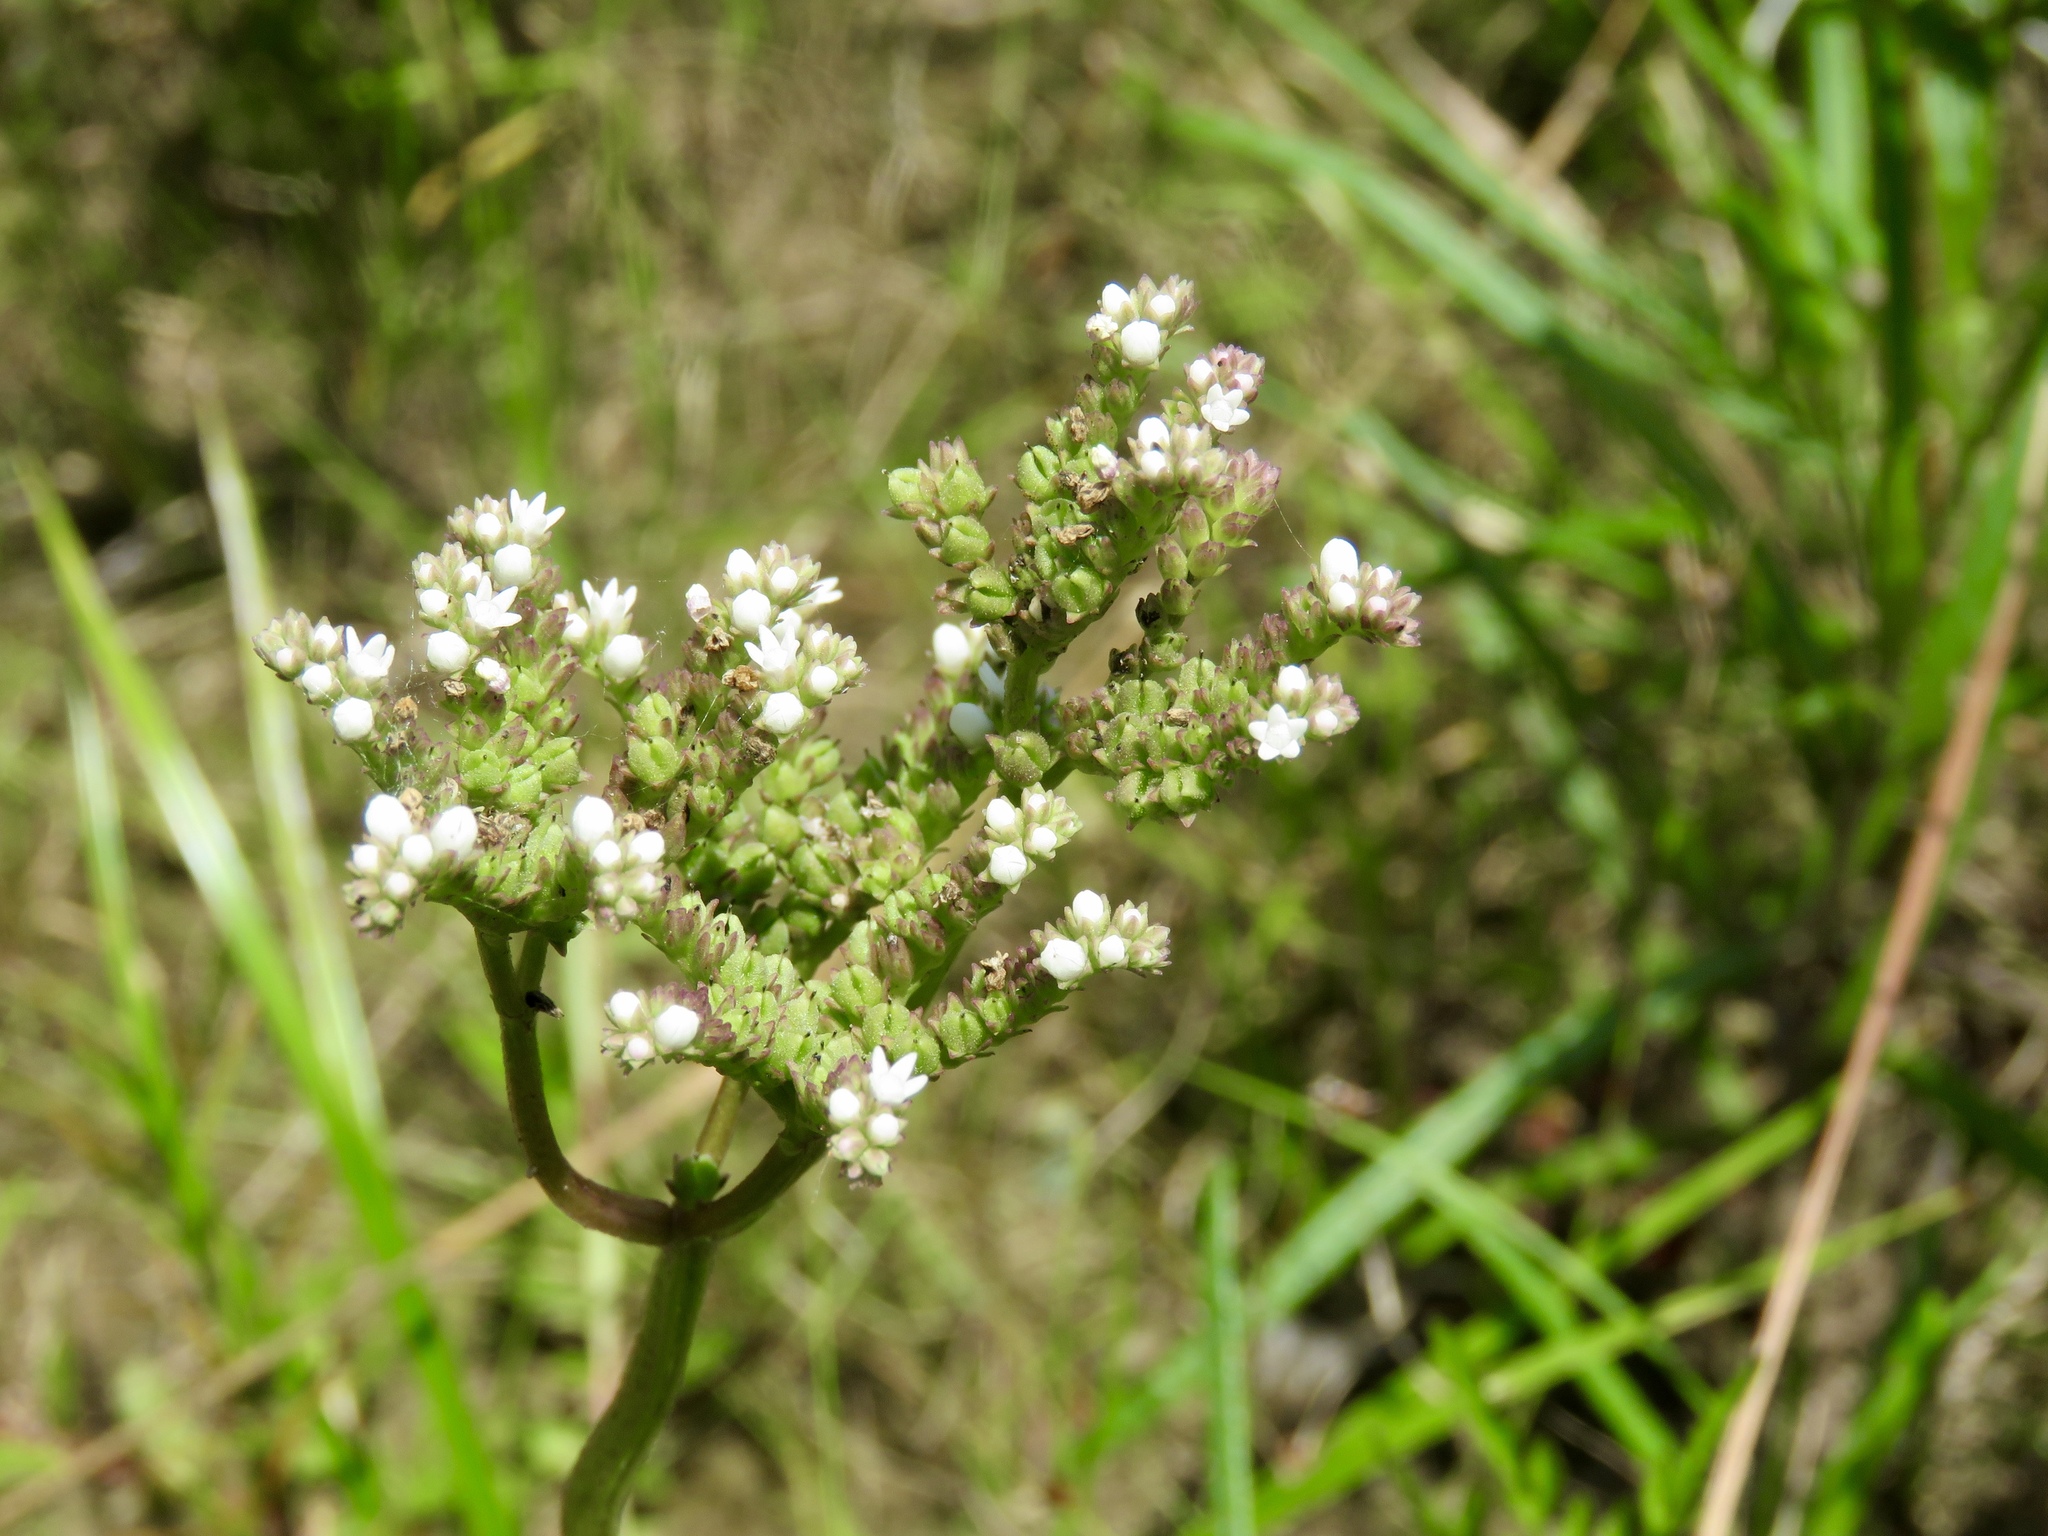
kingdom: Plantae
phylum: Tracheophyta
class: Magnoliopsida
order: Gentianales
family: Loganiaceae
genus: Mitreola
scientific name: Mitreola sessilifolia
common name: Swamp hornpod
